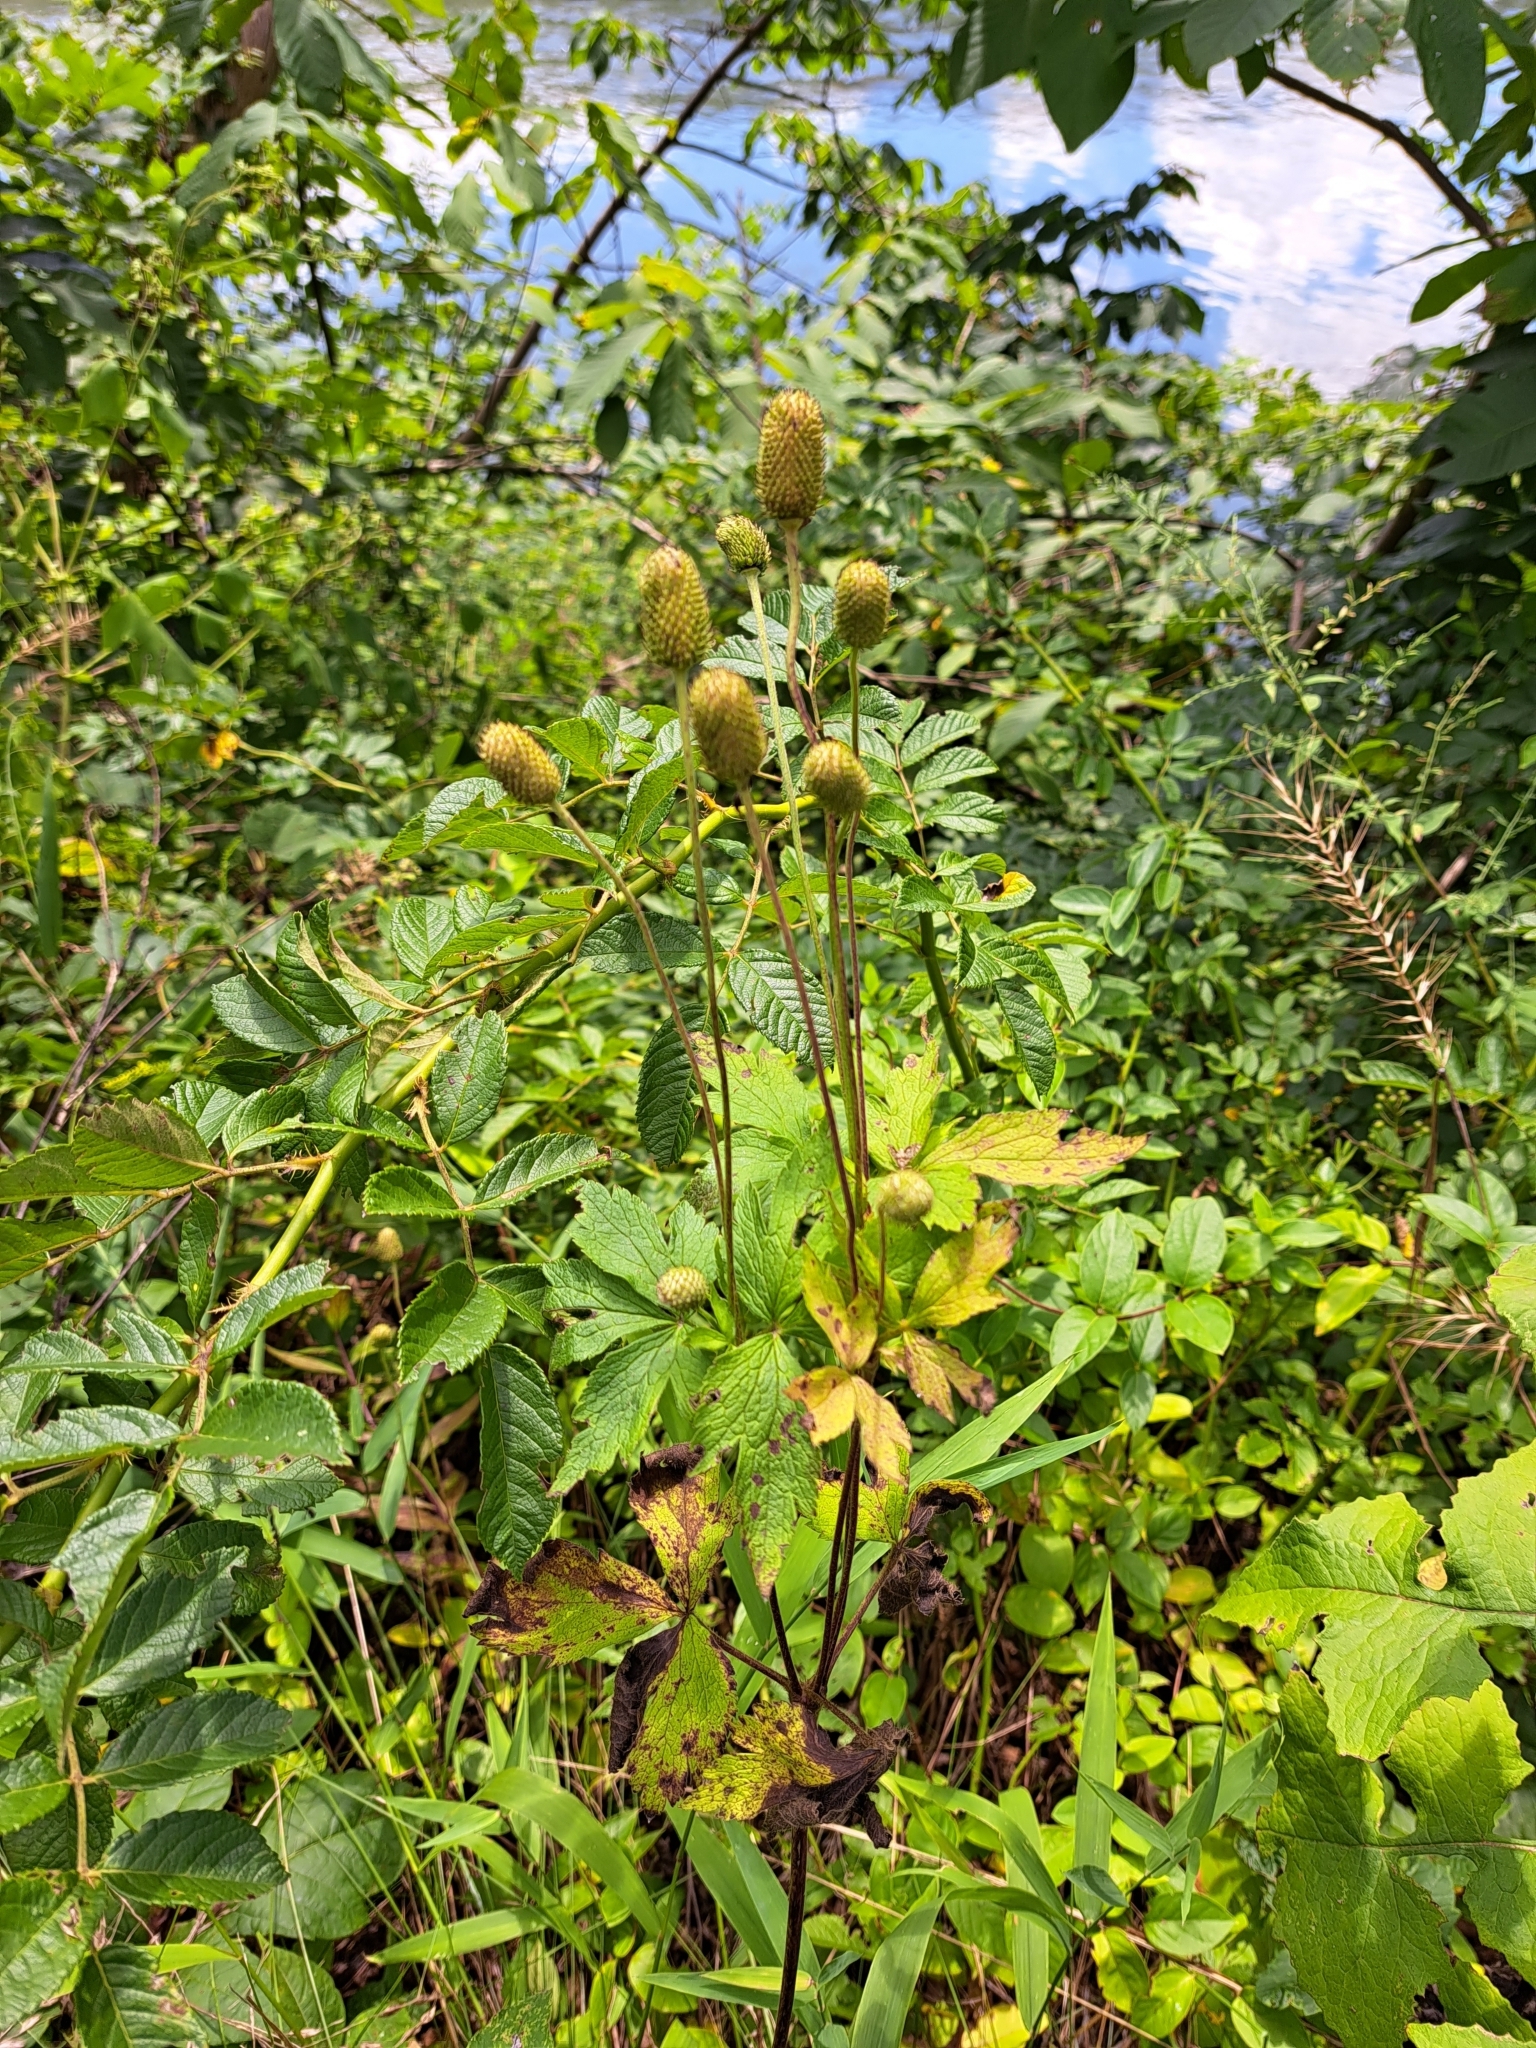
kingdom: Plantae
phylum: Tracheophyta
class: Magnoliopsida
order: Ranunculales
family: Ranunculaceae
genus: Anemone
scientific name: Anemone virginiana
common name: Tall anemone
